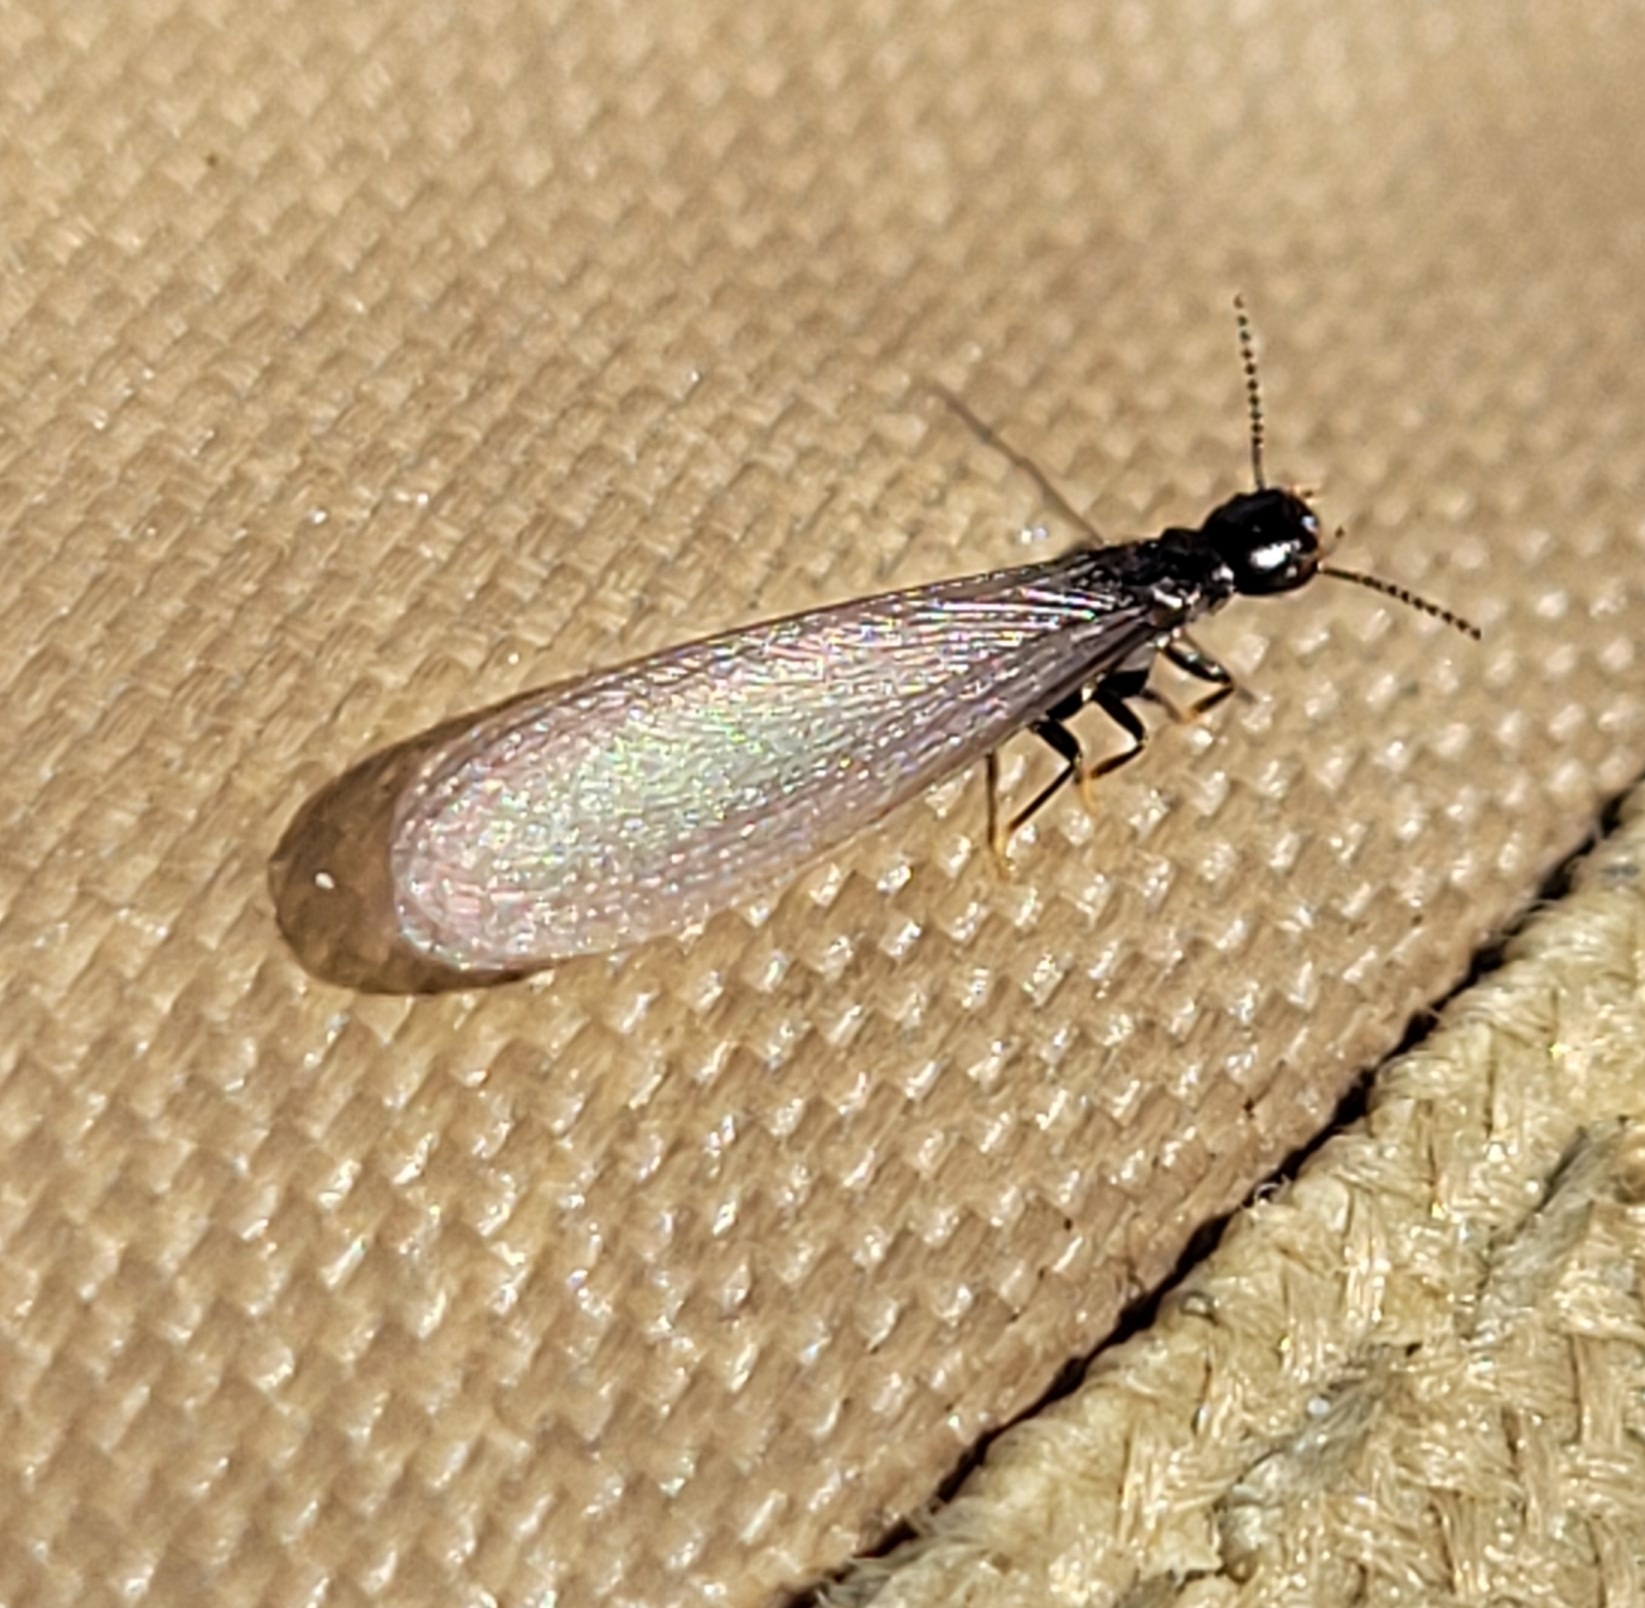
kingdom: Animalia
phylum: Arthropoda
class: Insecta
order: Blattodea
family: Rhinotermitidae
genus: Reticulitermes
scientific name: Reticulitermes hesperus
